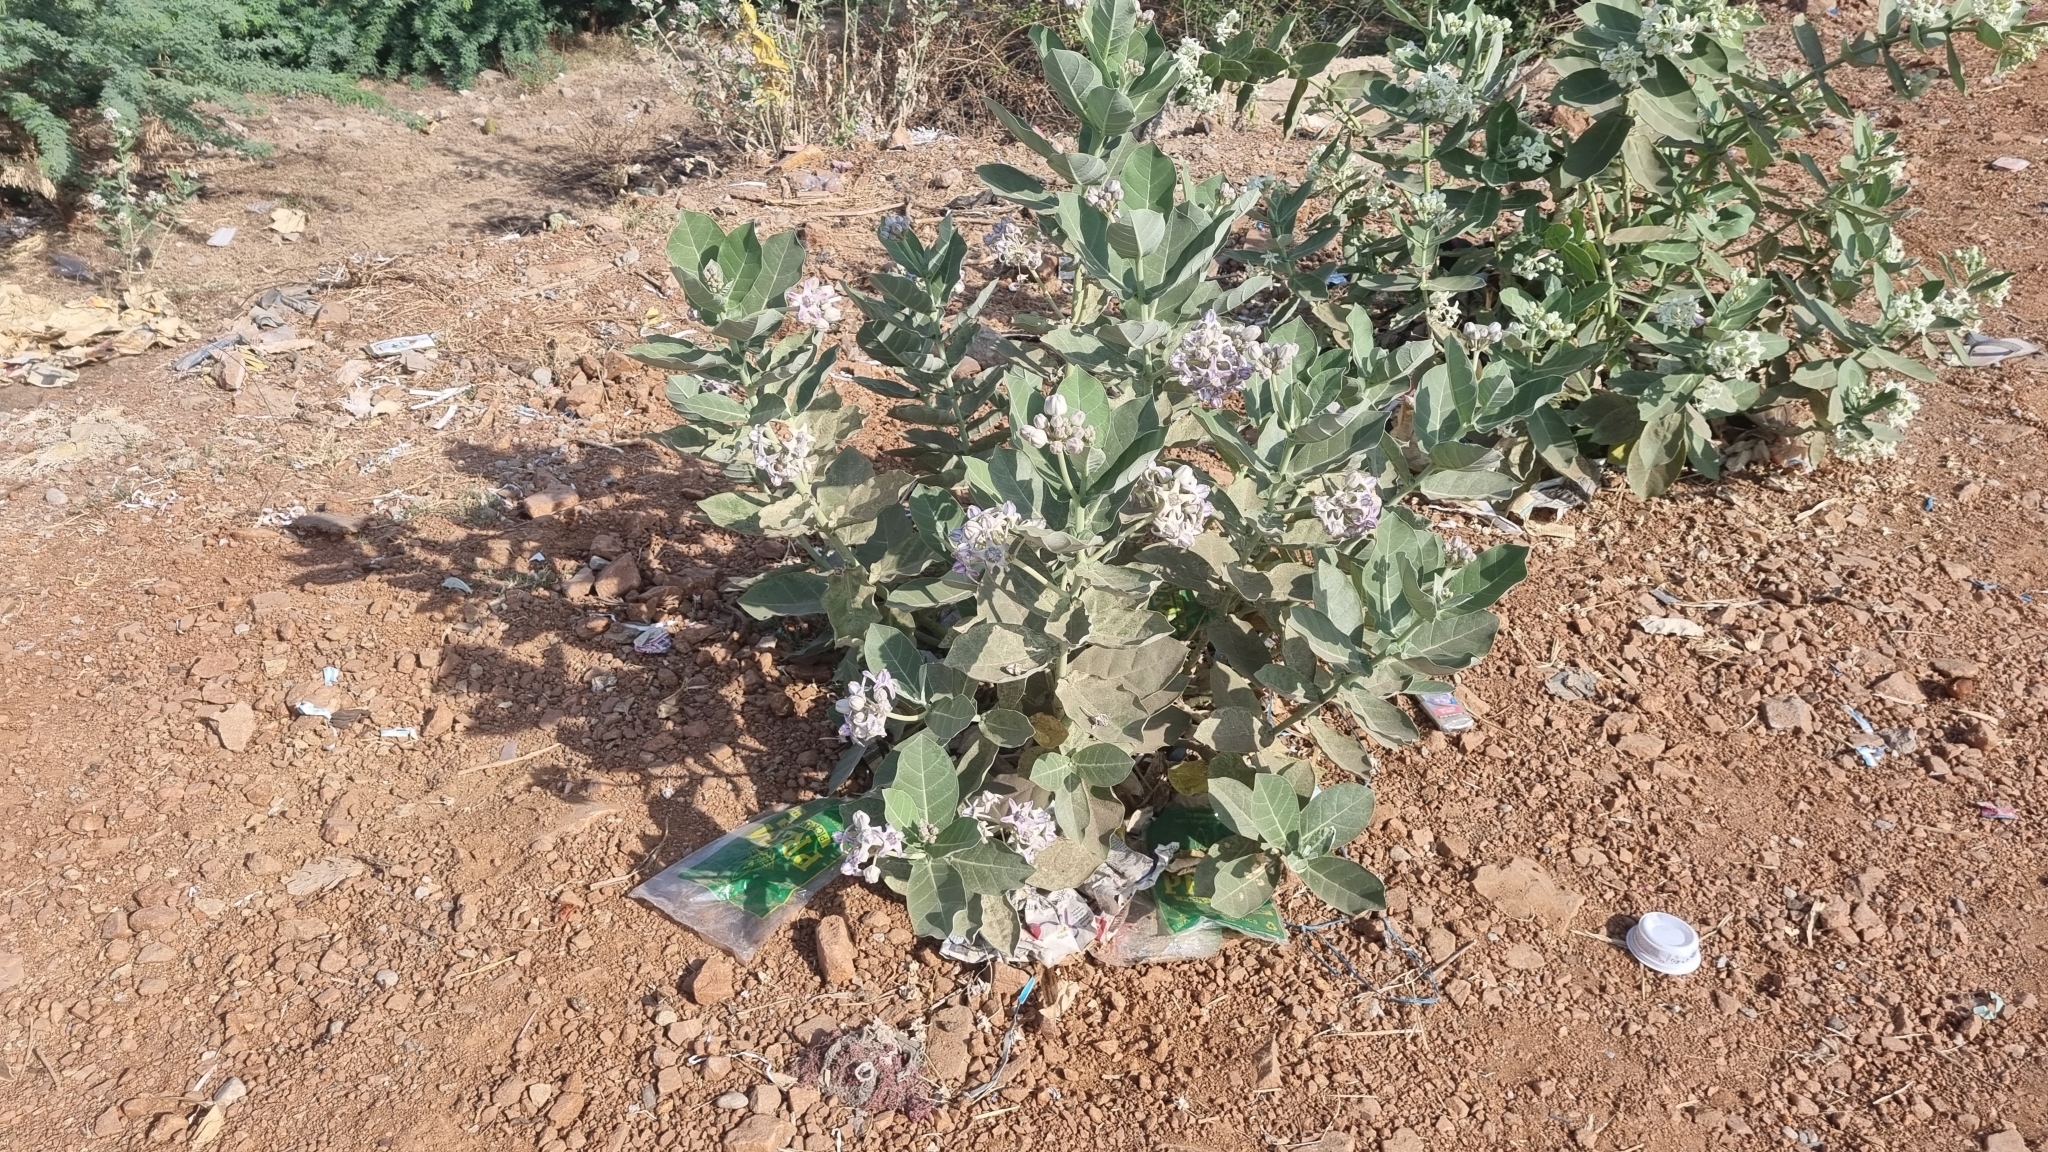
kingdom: Plantae
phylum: Tracheophyta
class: Magnoliopsida
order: Gentianales
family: Apocynaceae
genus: Calotropis
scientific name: Calotropis gigantea
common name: Crown flower
